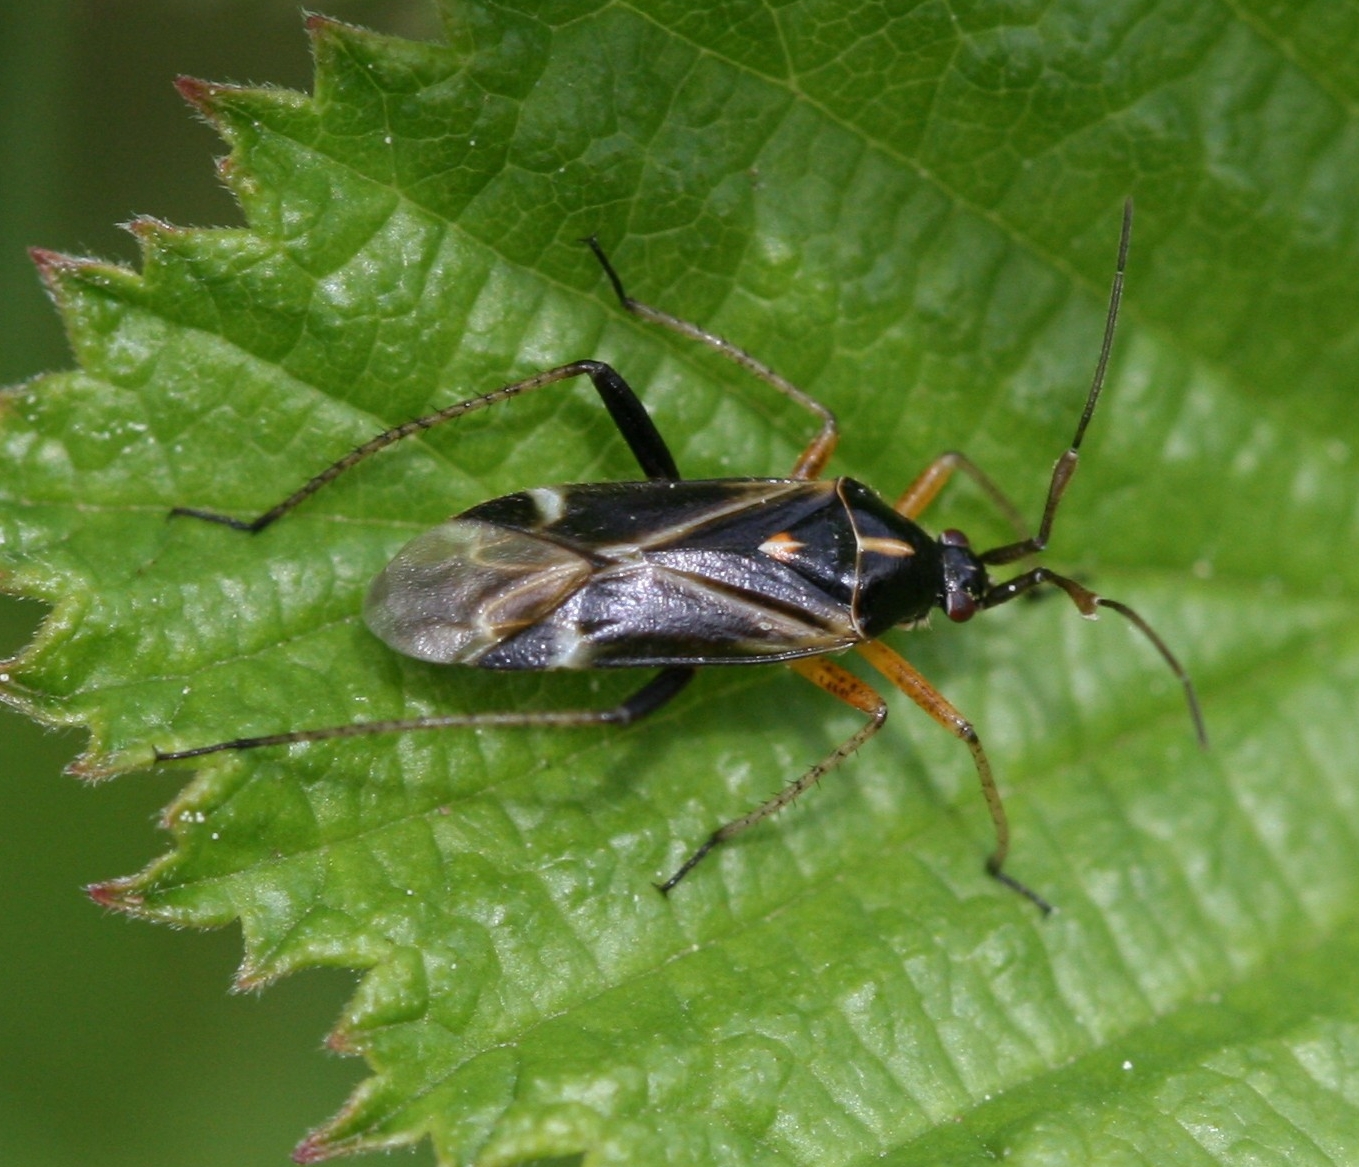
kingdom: Animalia
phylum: Arthropoda
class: Insecta
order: Hemiptera
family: Miridae
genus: Harpocera
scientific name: Harpocera thoracica
